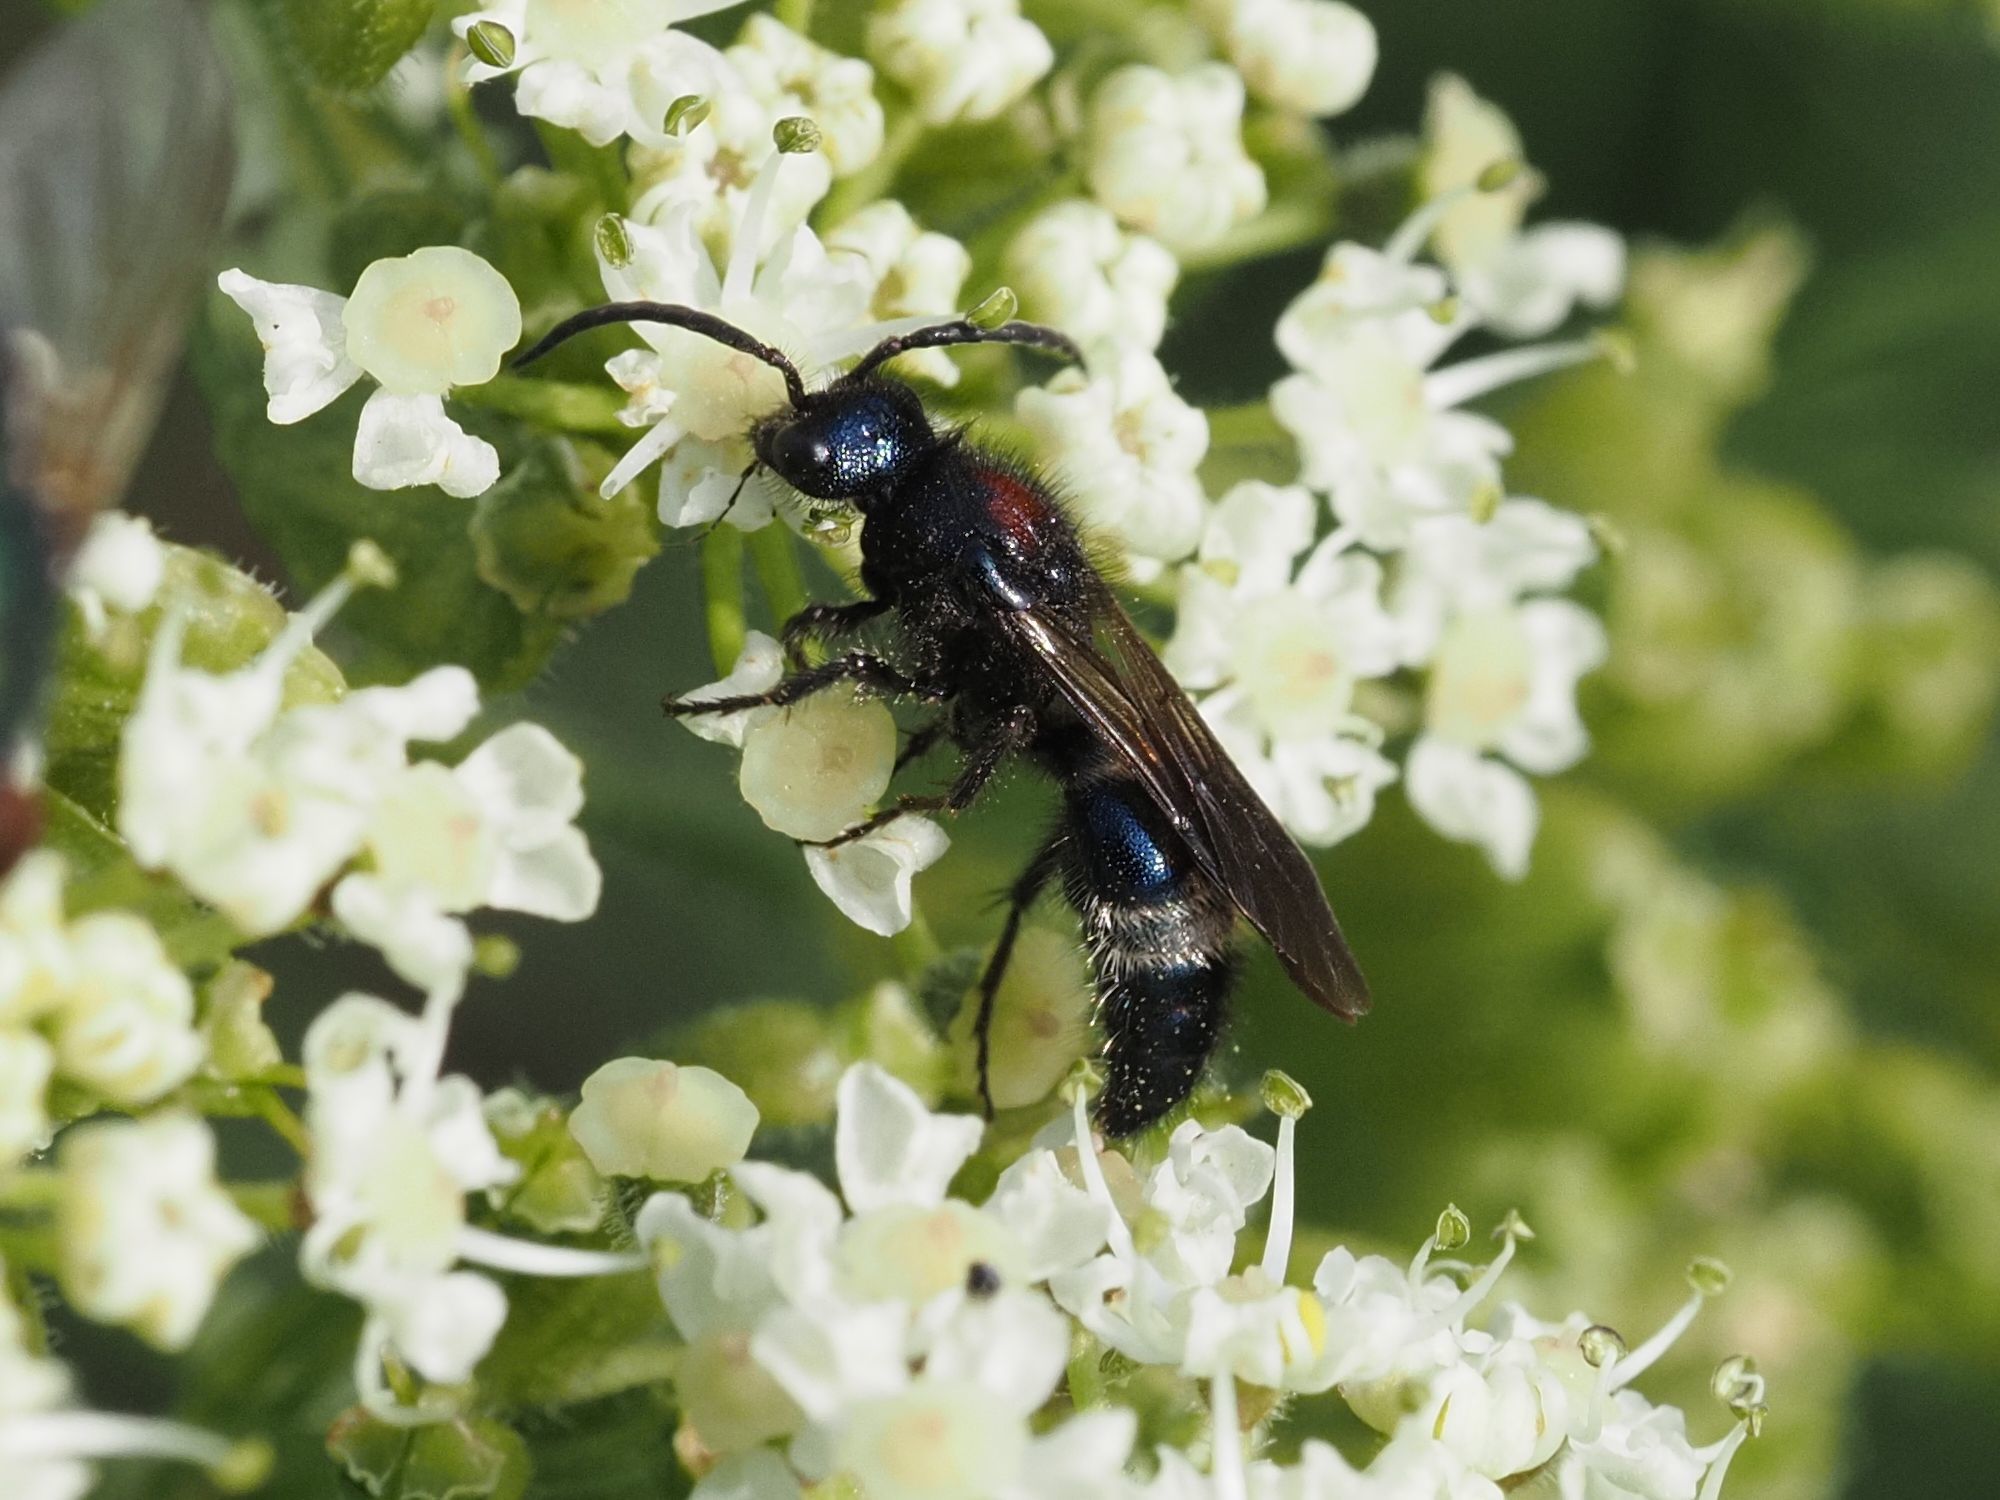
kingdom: Animalia
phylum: Arthropoda
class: Insecta
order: Hymenoptera
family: Mutillidae
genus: Mutilla
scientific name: Mutilla europaea
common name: Large velvet ant
